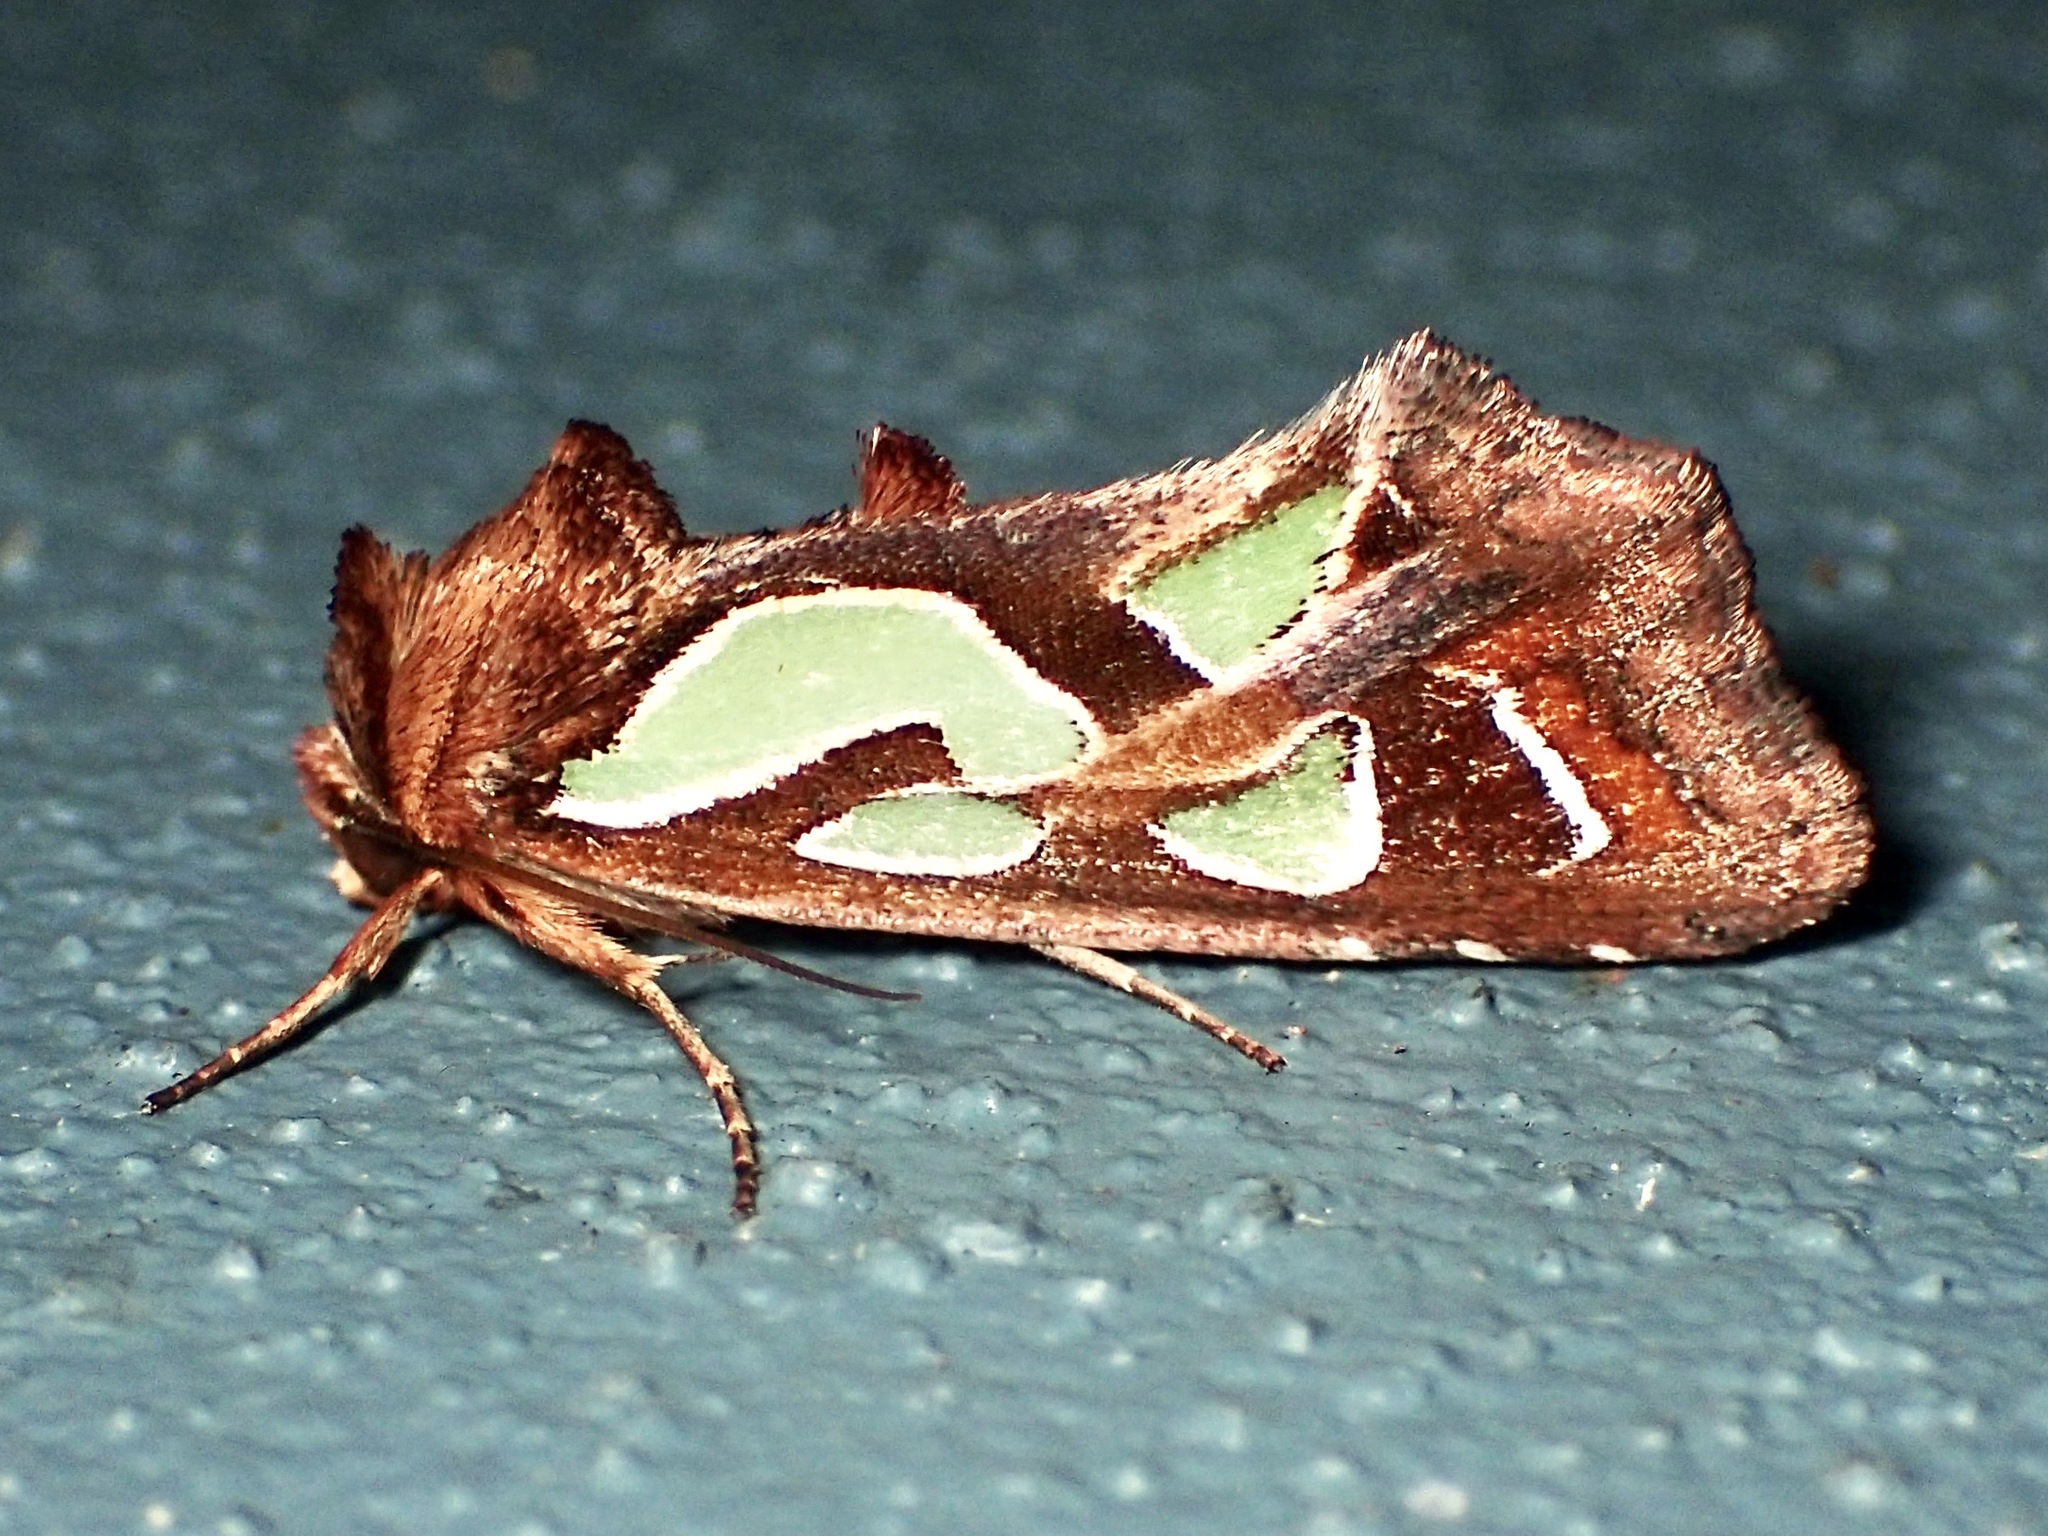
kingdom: Animalia
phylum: Arthropoda
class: Insecta
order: Lepidoptera
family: Noctuidae
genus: Cosmodes
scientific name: Cosmodes elegans
